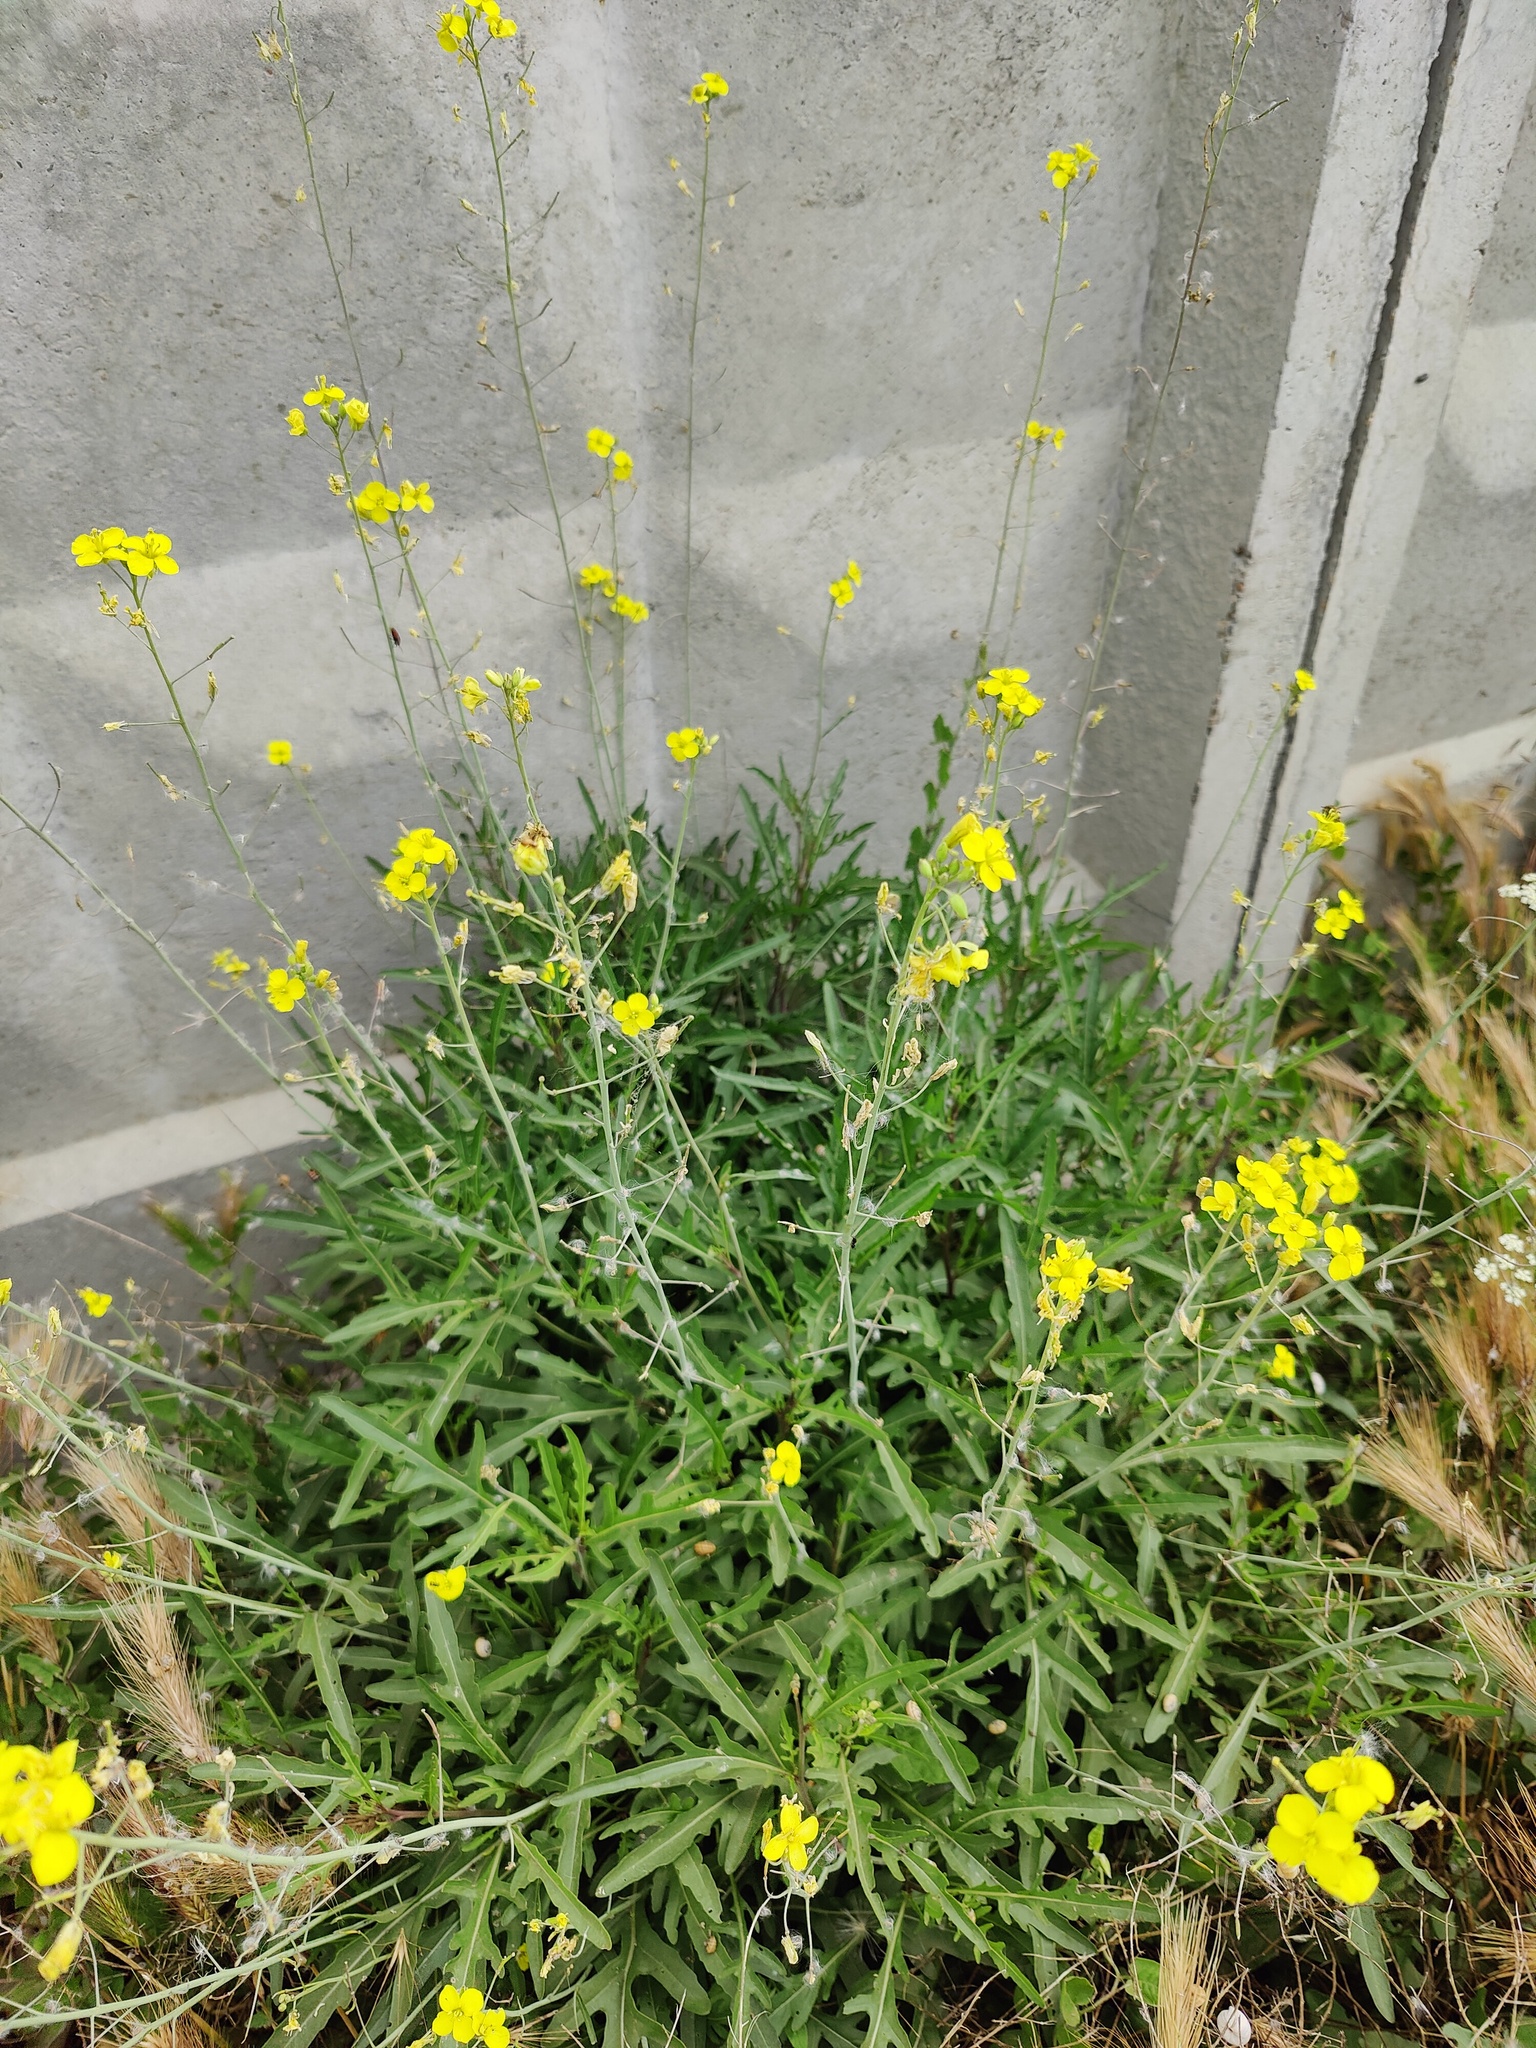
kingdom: Plantae
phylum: Tracheophyta
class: Magnoliopsida
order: Brassicales
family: Brassicaceae
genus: Diplotaxis
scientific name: Diplotaxis tenuifolia
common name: Perennial wall-rocket
